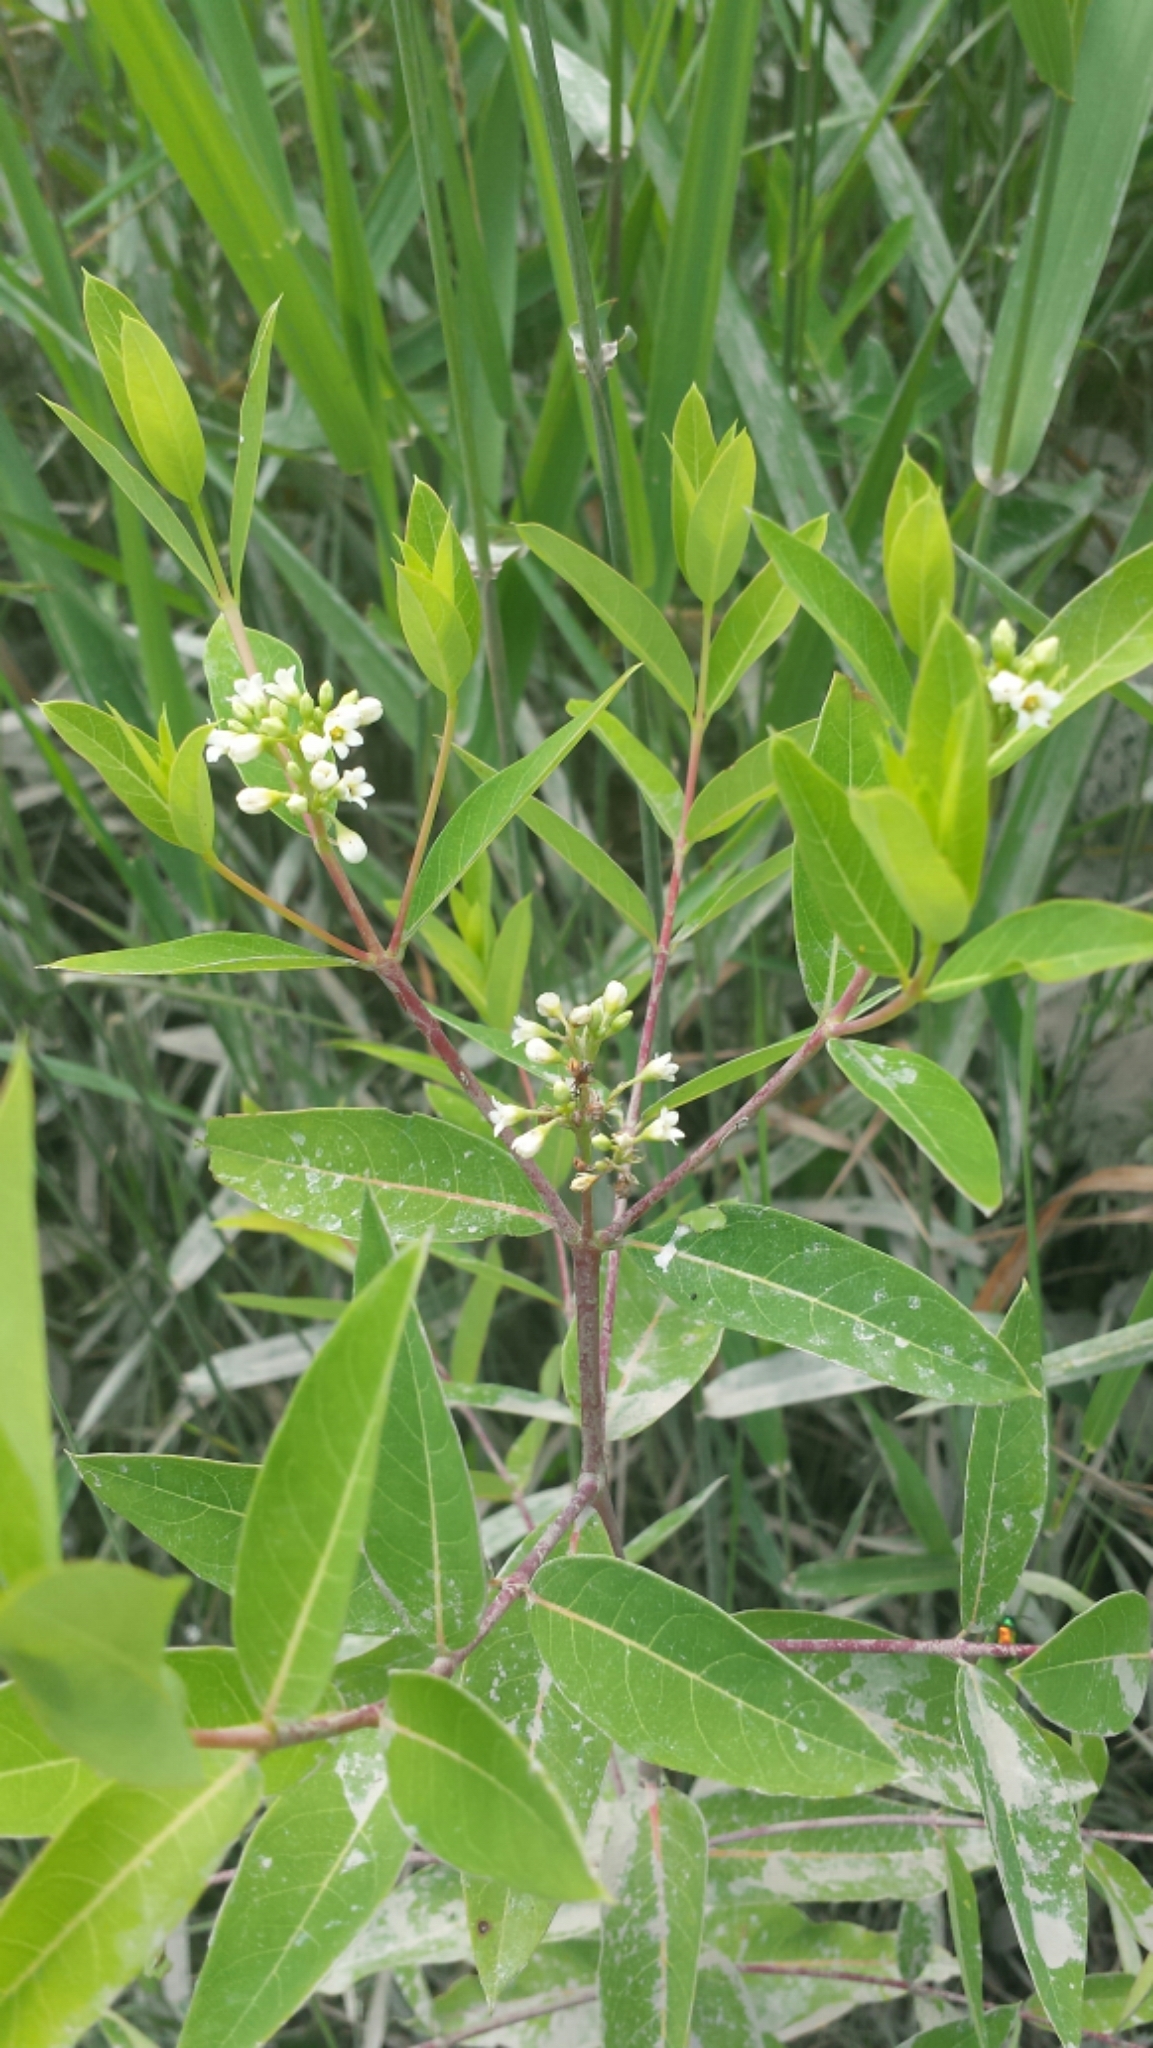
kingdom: Plantae
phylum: Tracheophyta
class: Magnoliopsida
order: Gentianales
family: Apocynaceae
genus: Apocynum
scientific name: Apocynum cannabinum
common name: Hemp dogbane
